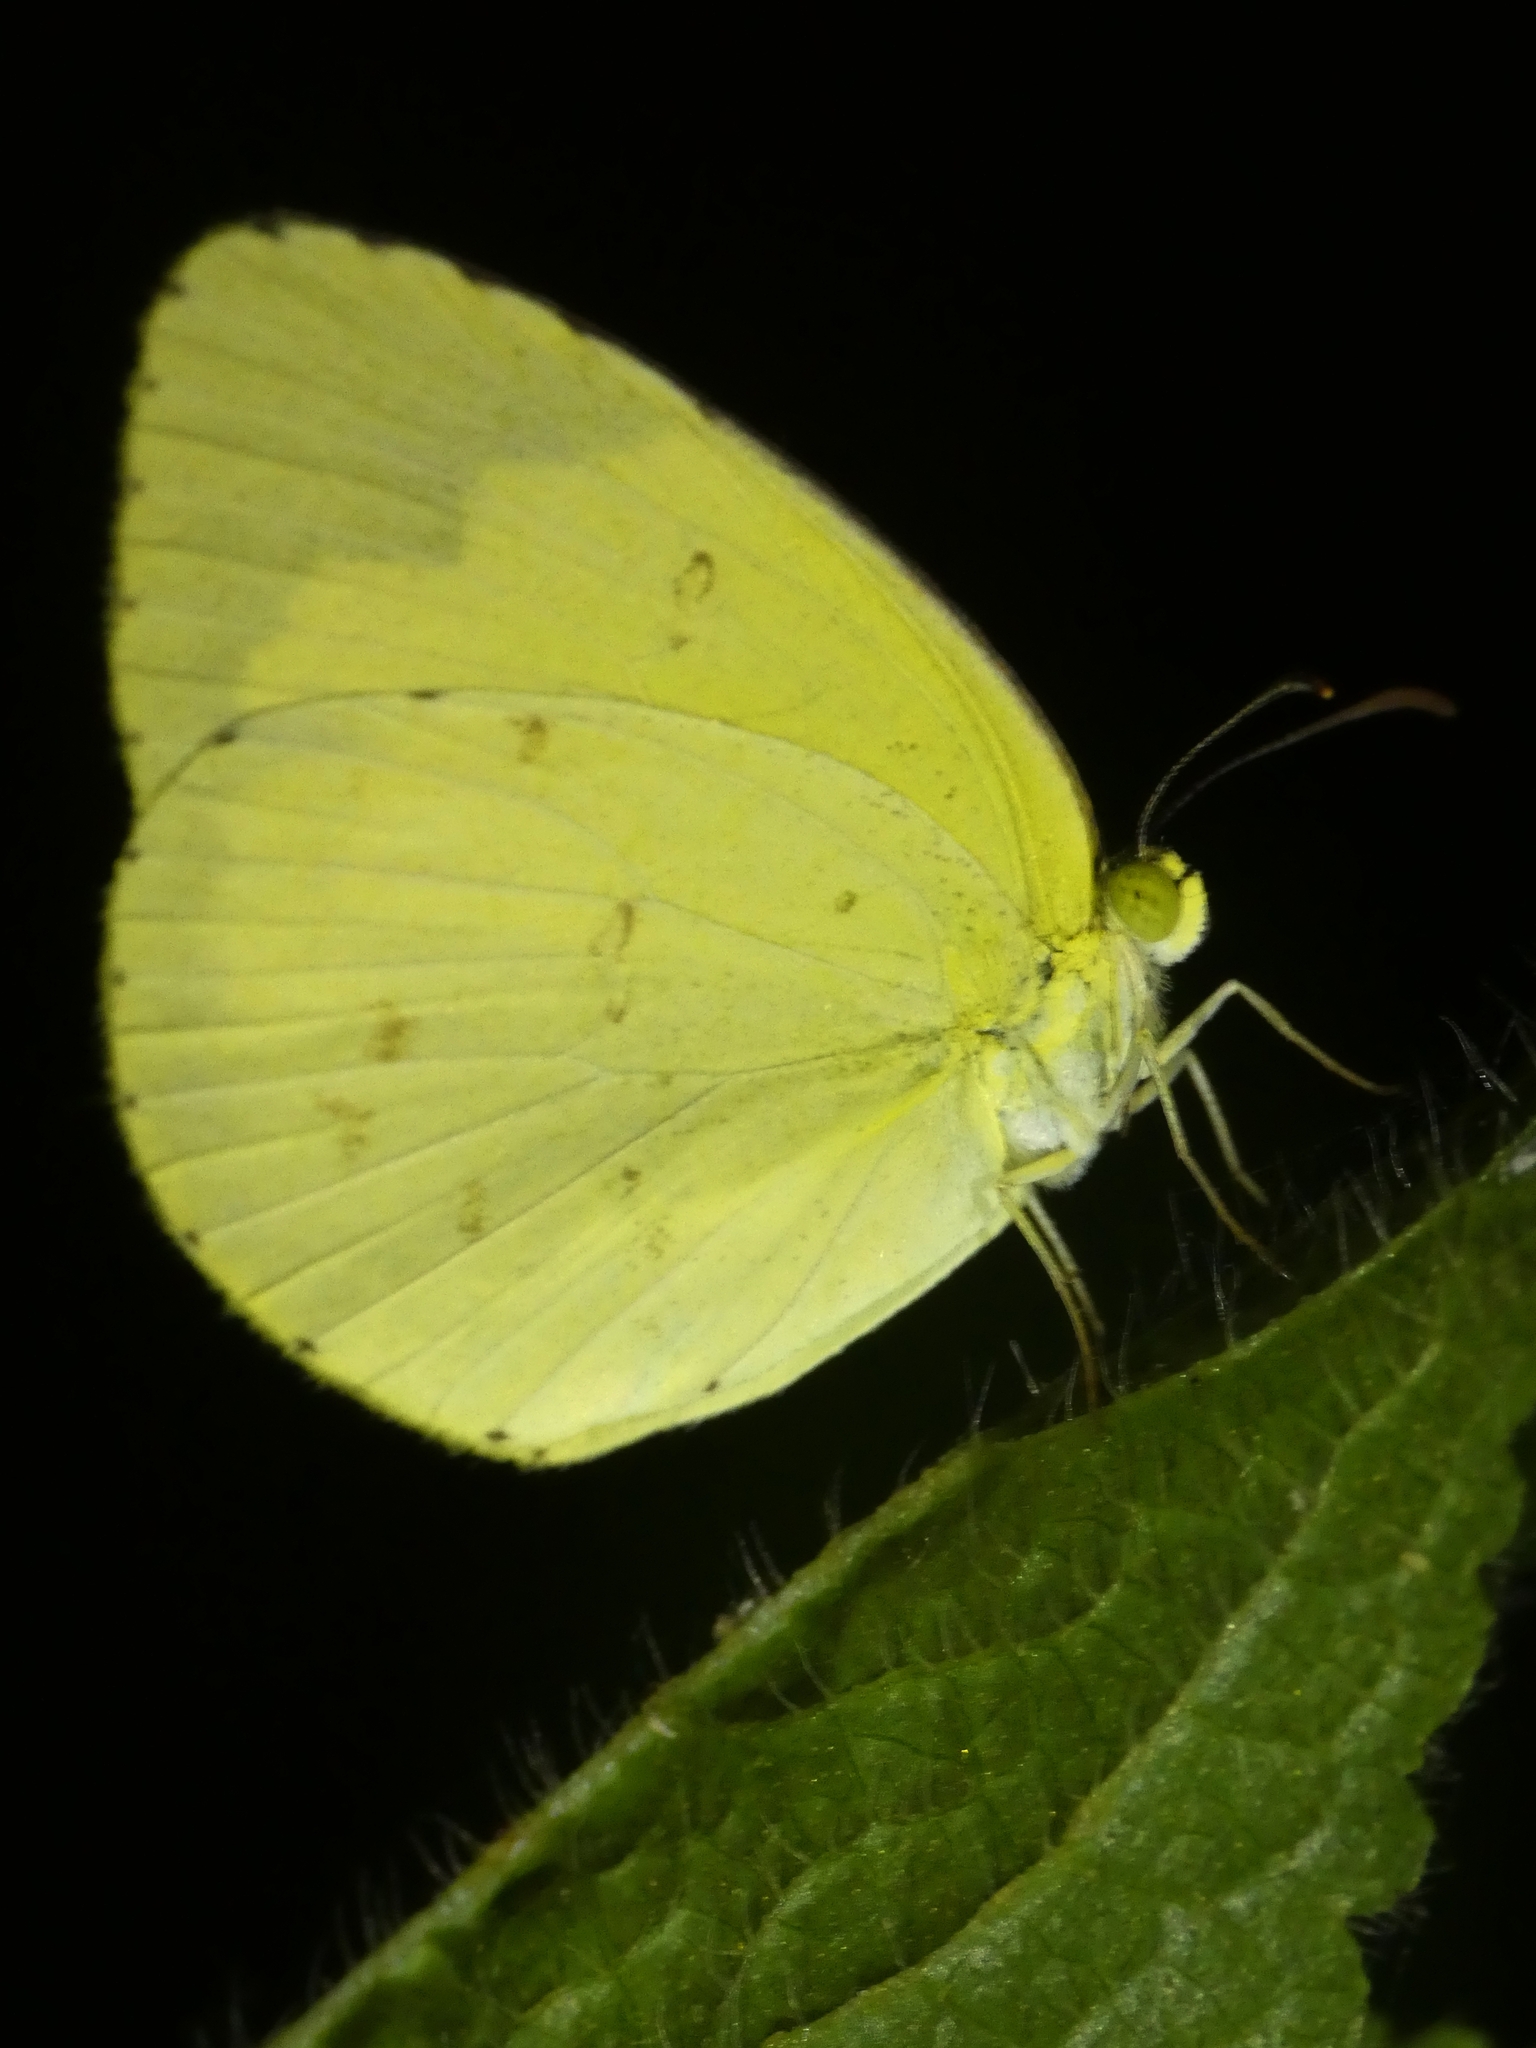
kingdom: Animalia
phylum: Arthropoda
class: Insecta
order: Lepidoptera
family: Pieridae
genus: Eurema
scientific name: Eurema hecabe
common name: Pale grass yellow
